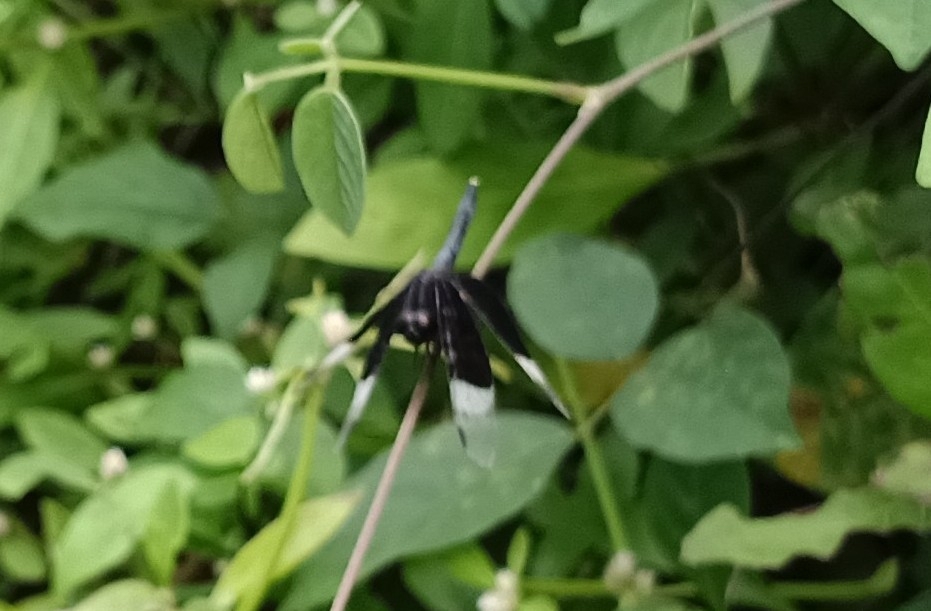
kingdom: Animalia
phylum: Arthropoda
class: Insecta
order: Odonata
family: Libellulidae
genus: Neurothemis
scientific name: Neurothemis tullia
